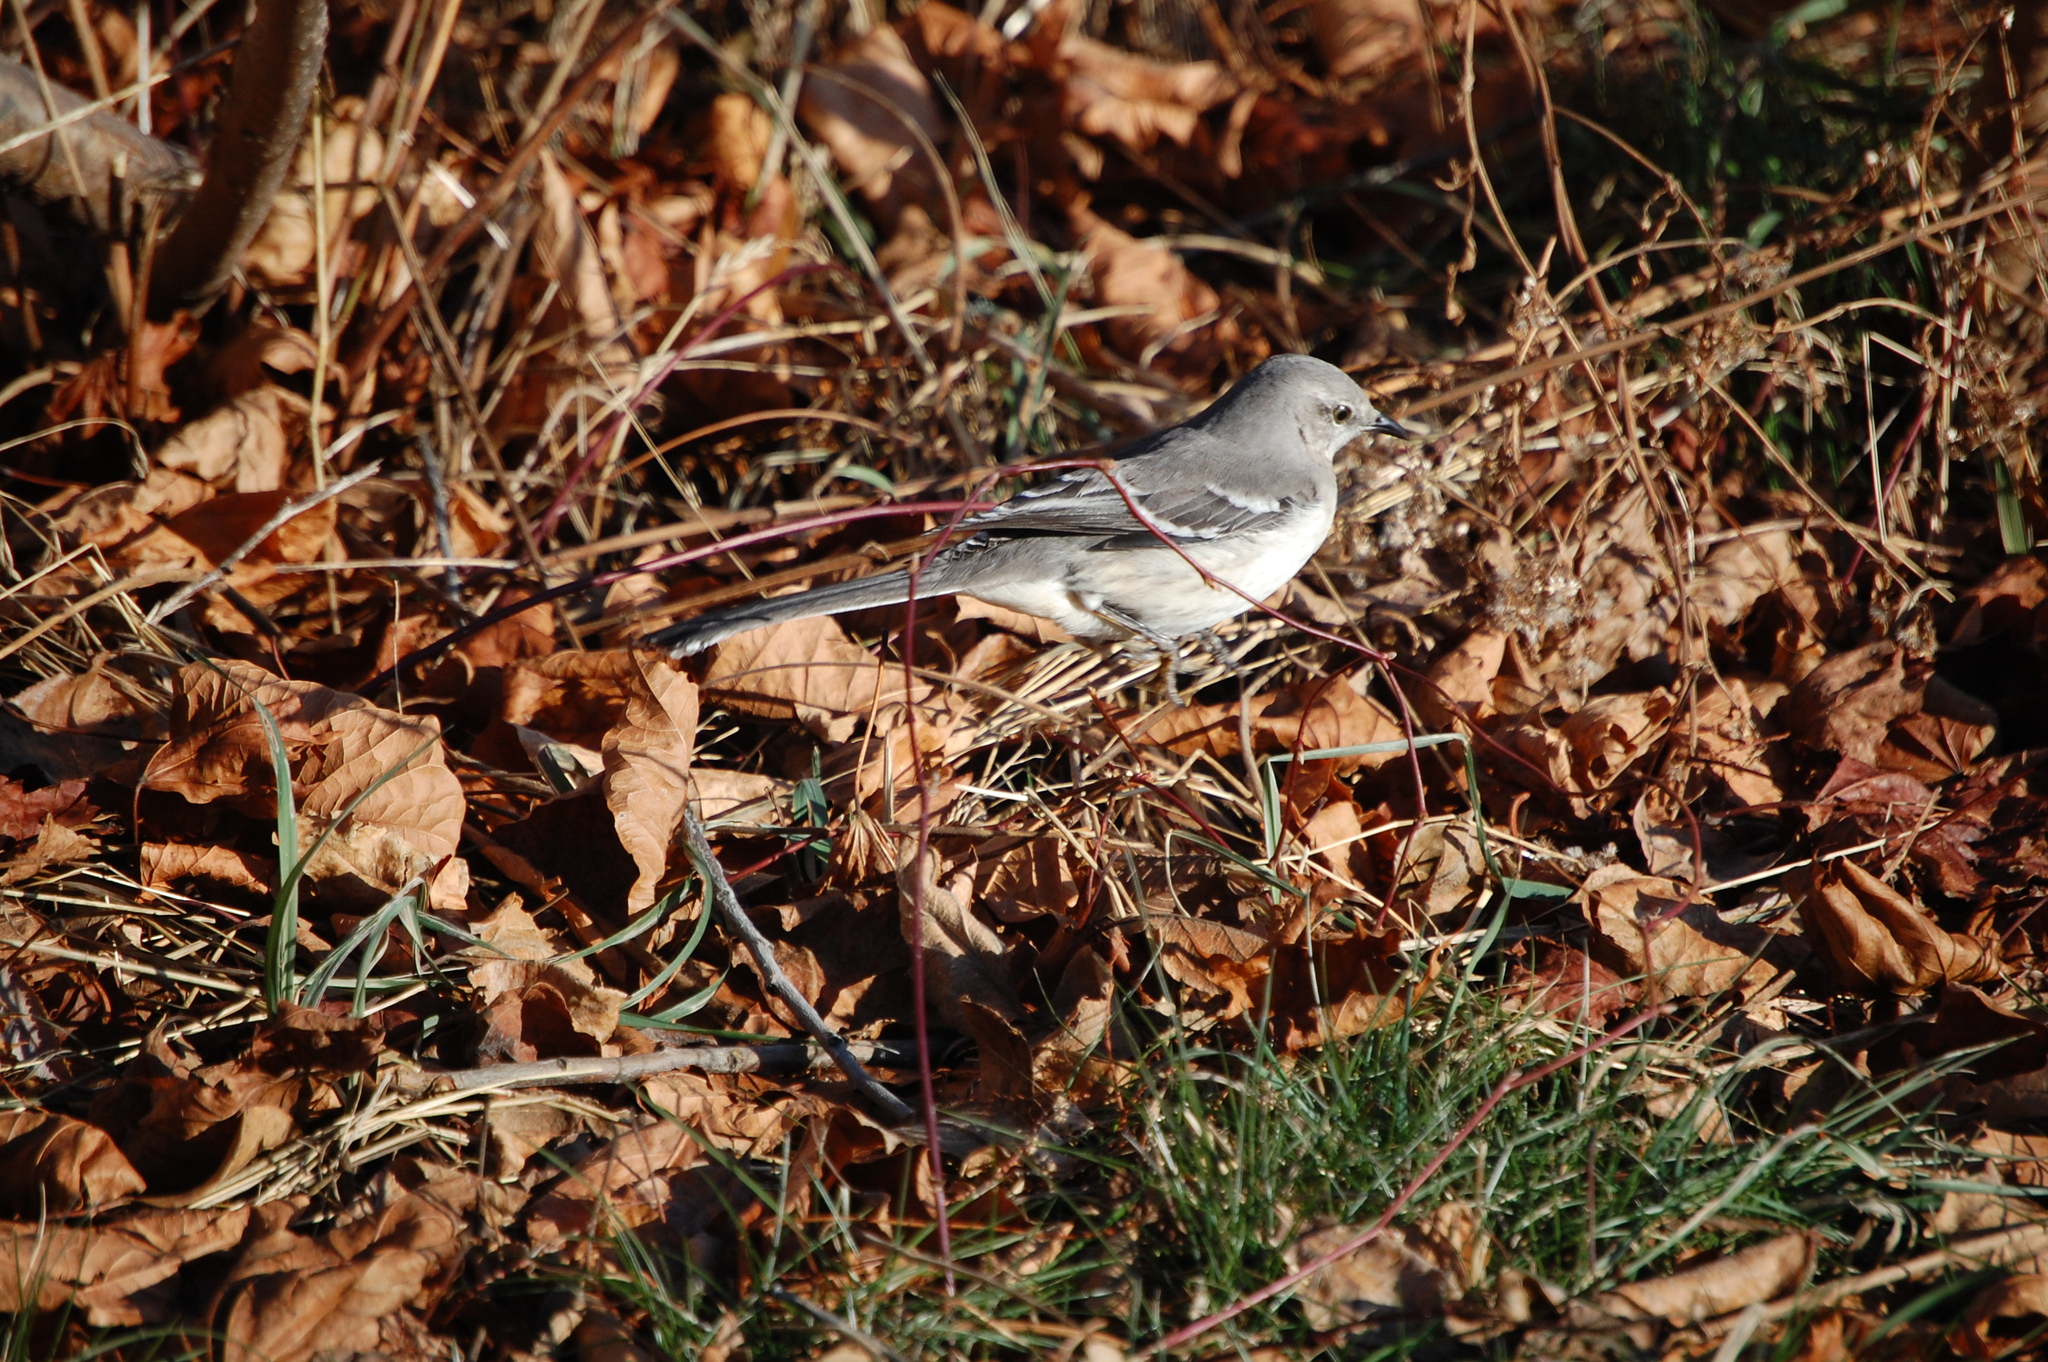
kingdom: Animalia
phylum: Chordata
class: Aves
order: Passeriformes
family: Mimidae
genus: Mimus
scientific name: Mimus polyglottos
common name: Northern mockingbird
